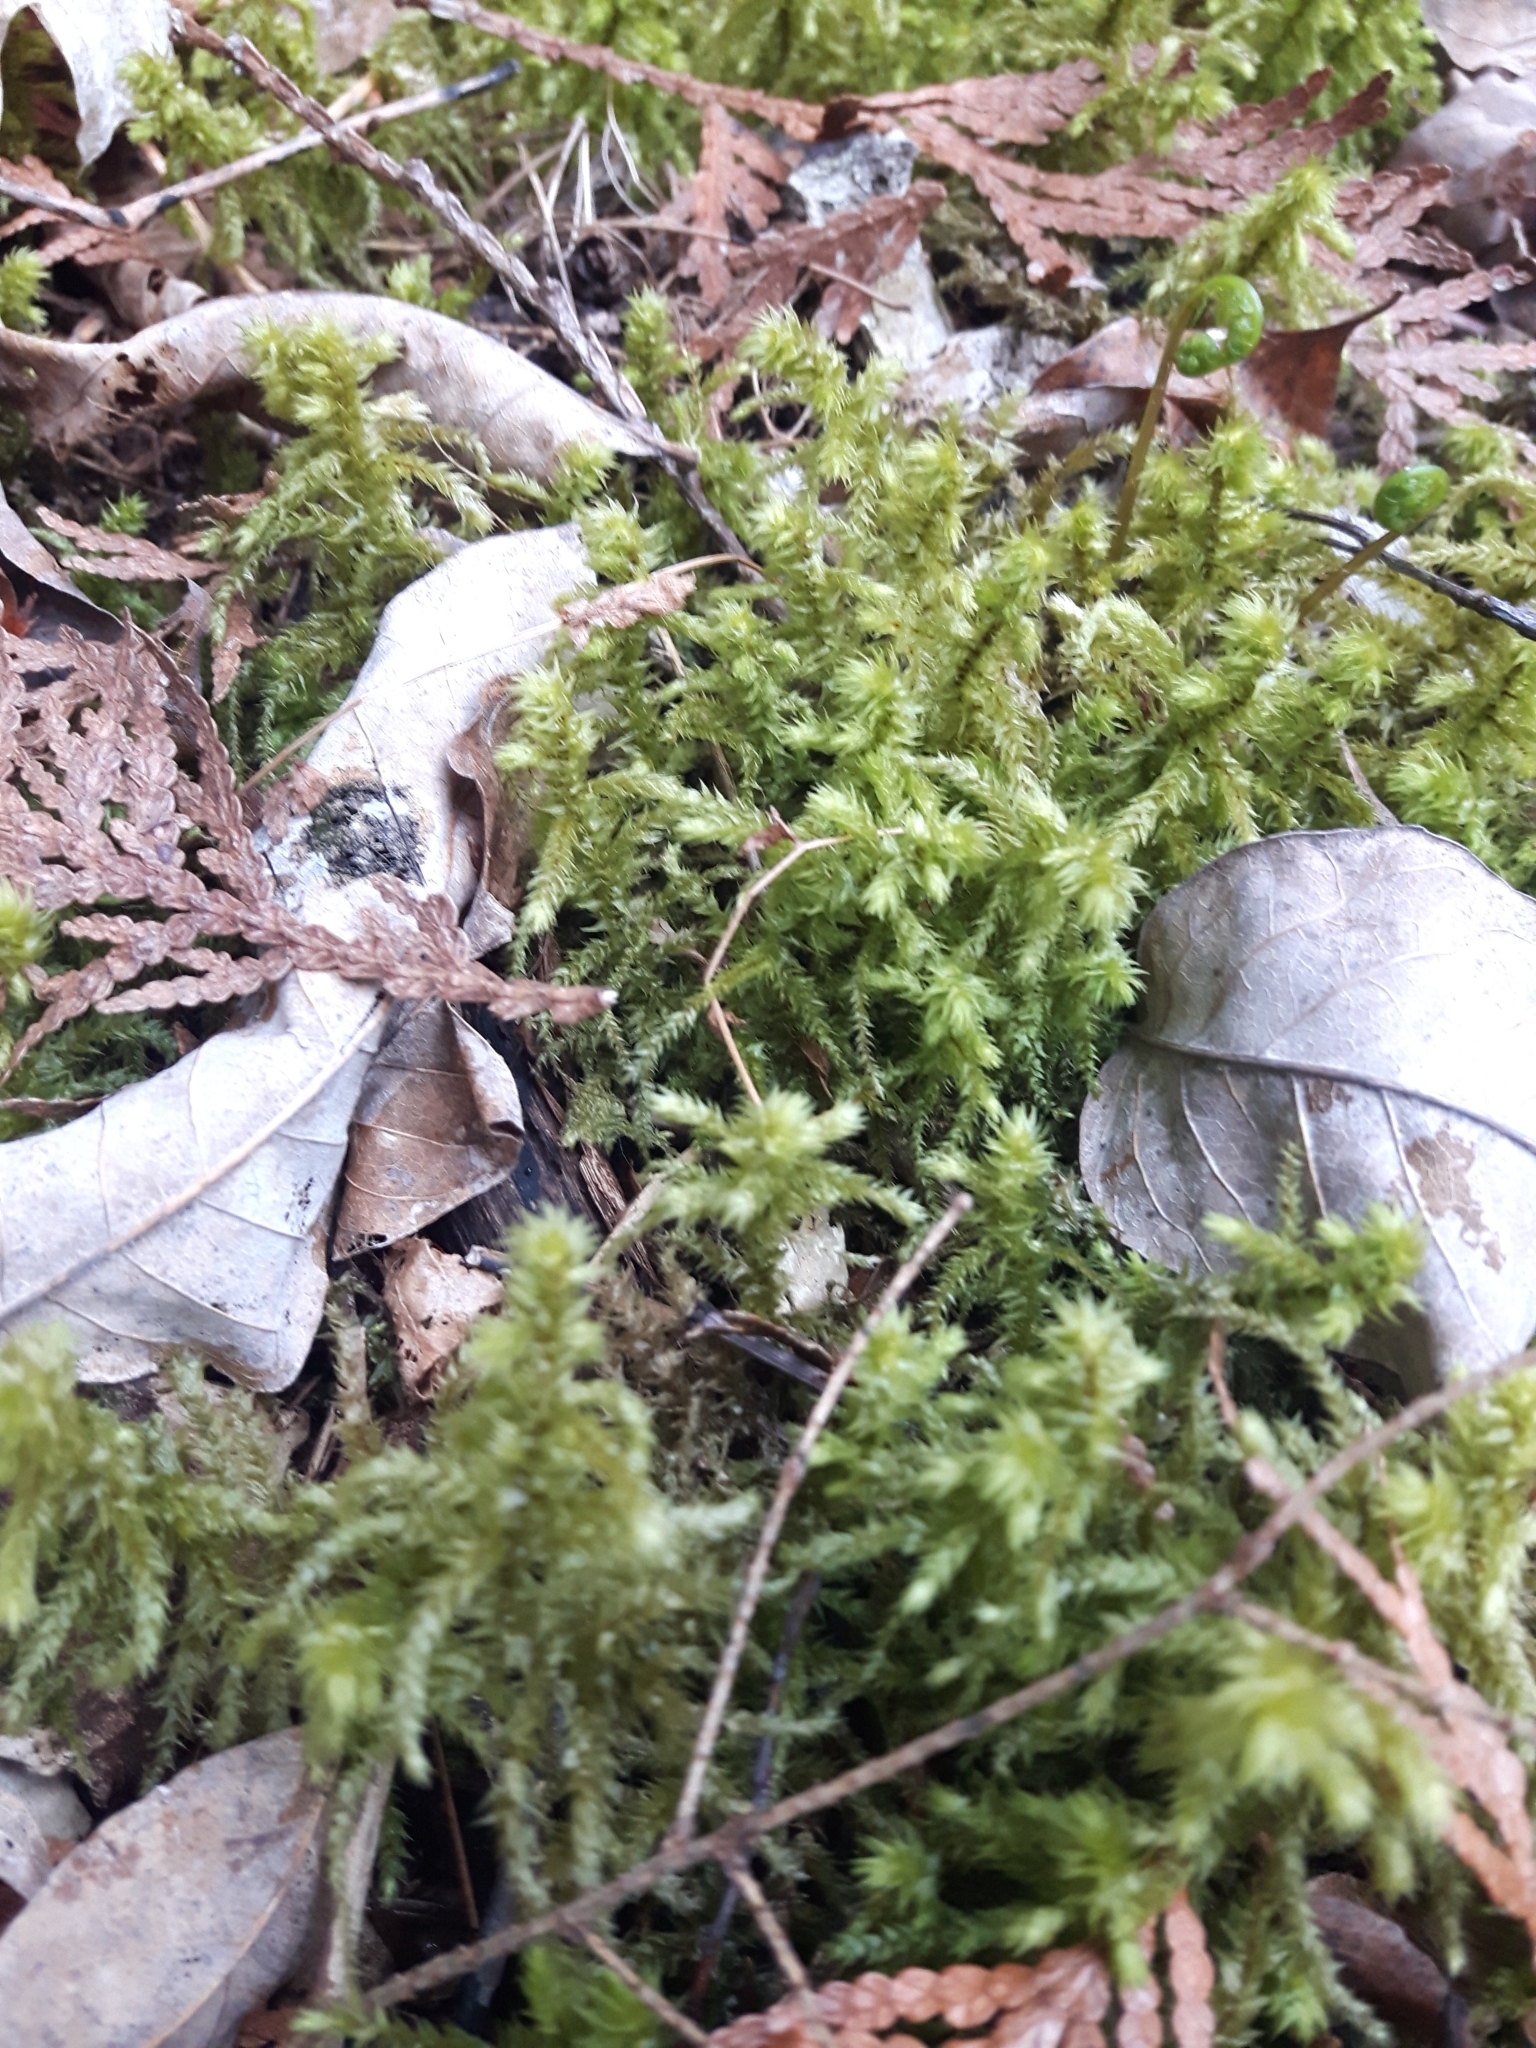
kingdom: Plantae
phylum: Bryophyta
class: Bryopsida
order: Hypnales
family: Hylocomiaceae
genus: Hylocomiadelphus
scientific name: Hylocomiadelphus triquetrus
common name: Rough goose neck moss
